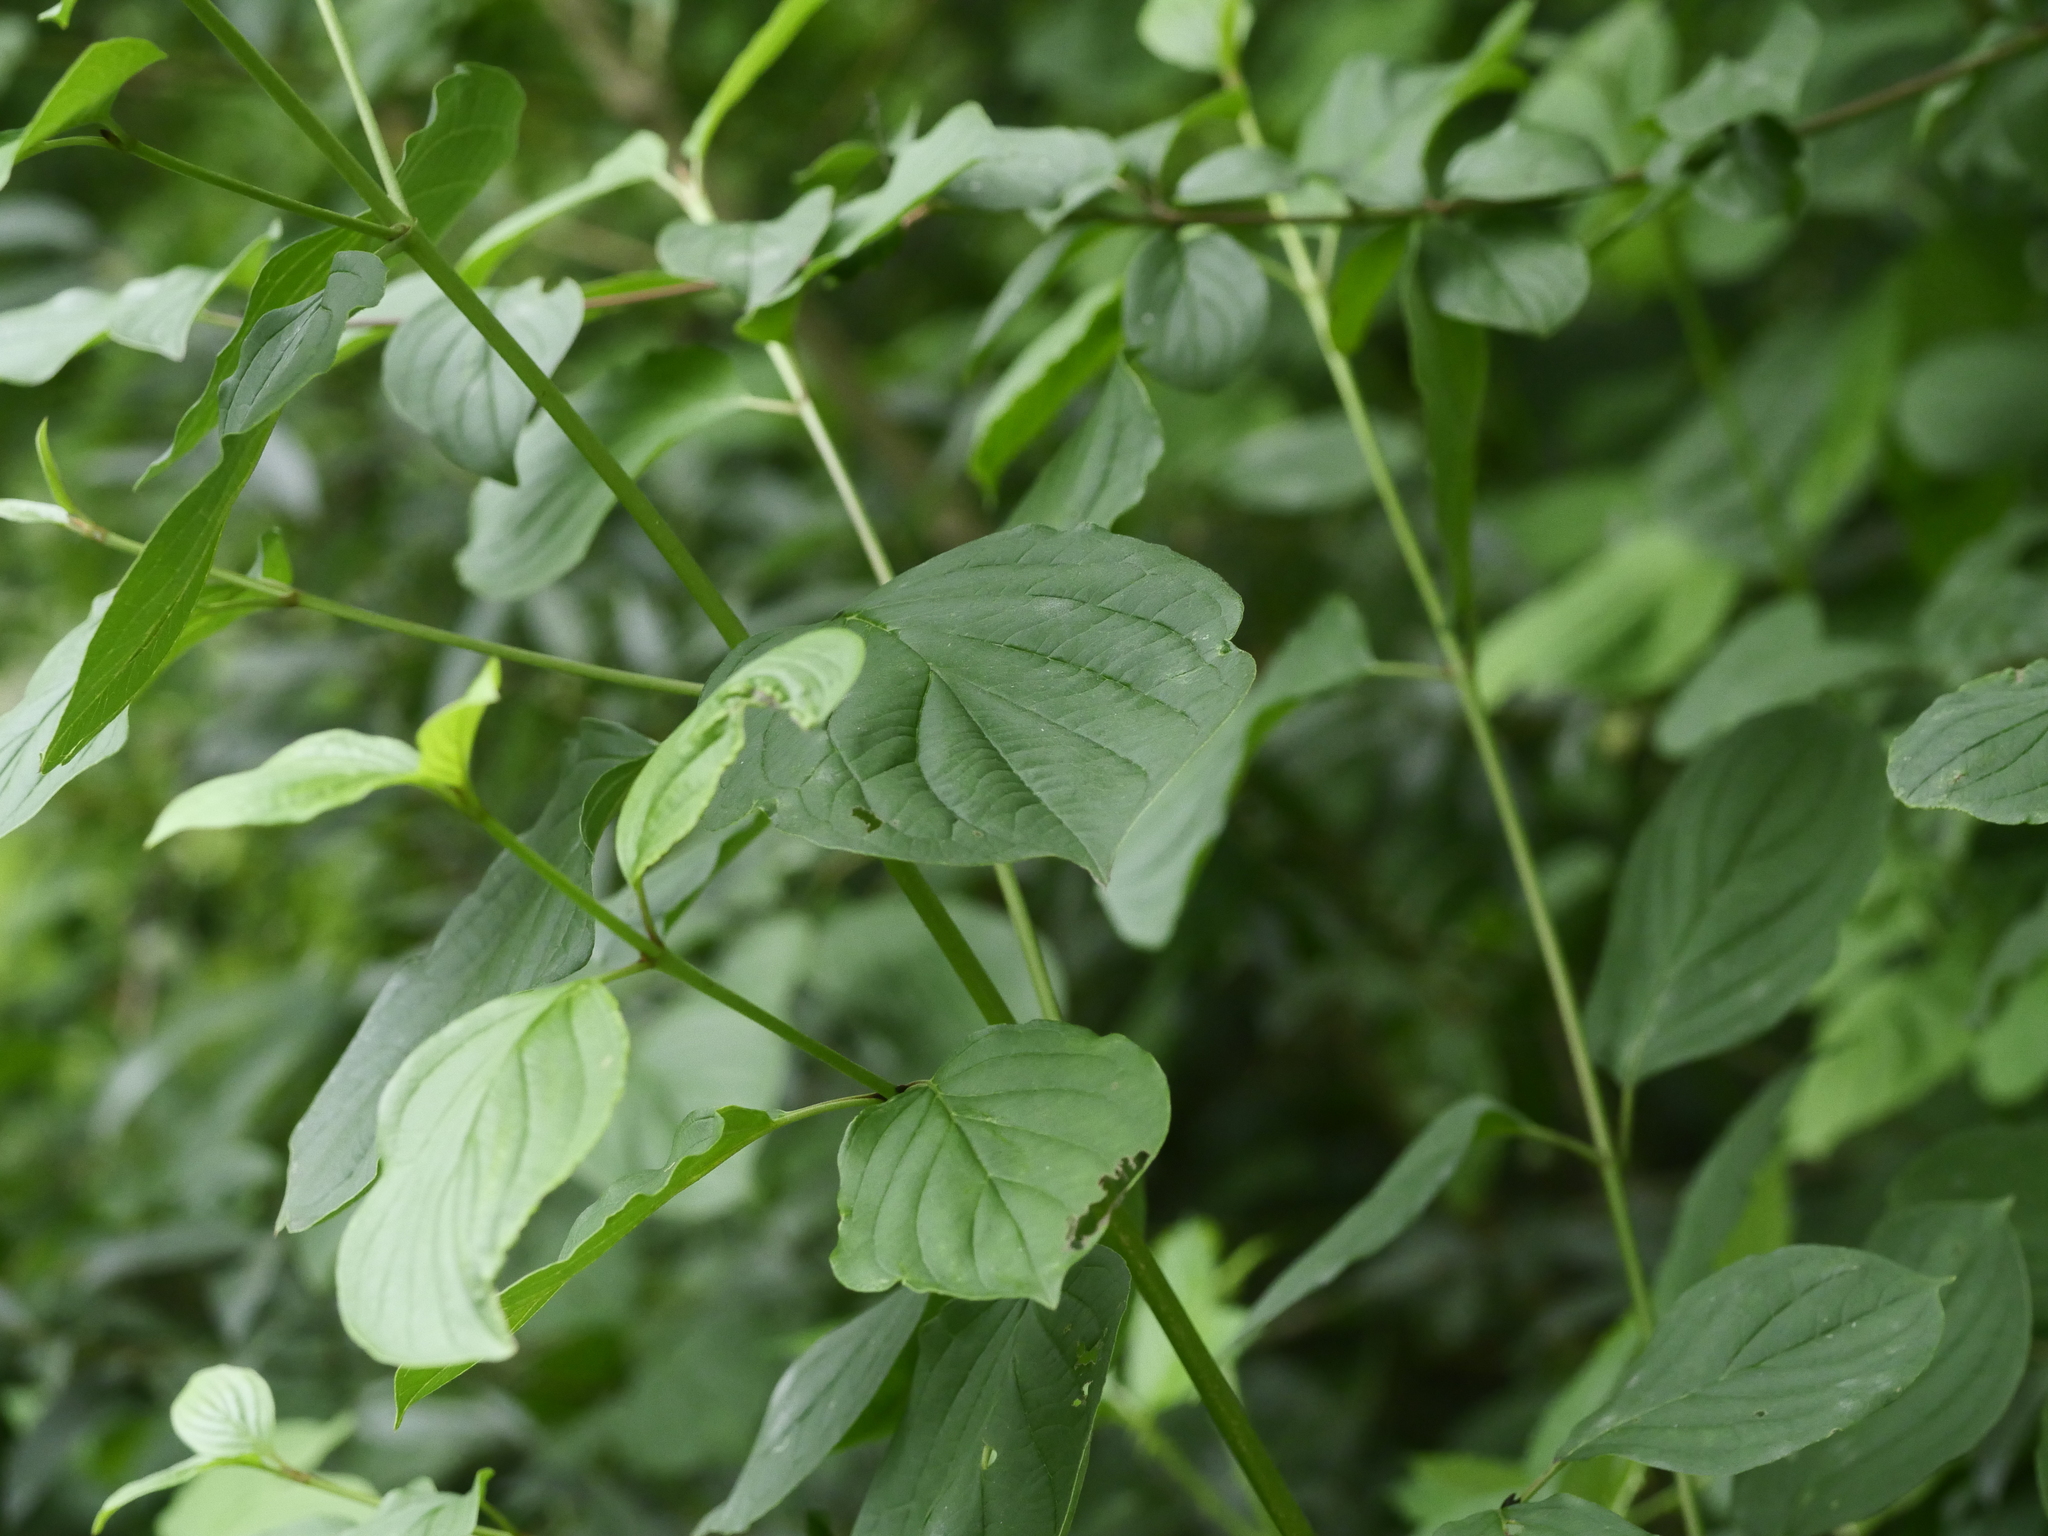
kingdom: Plantae
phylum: Tracheophyta
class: Magnoliopsida
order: Cornales
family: Cornaceae
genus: Cornus
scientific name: Cornus sanguinea
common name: Dogwood
